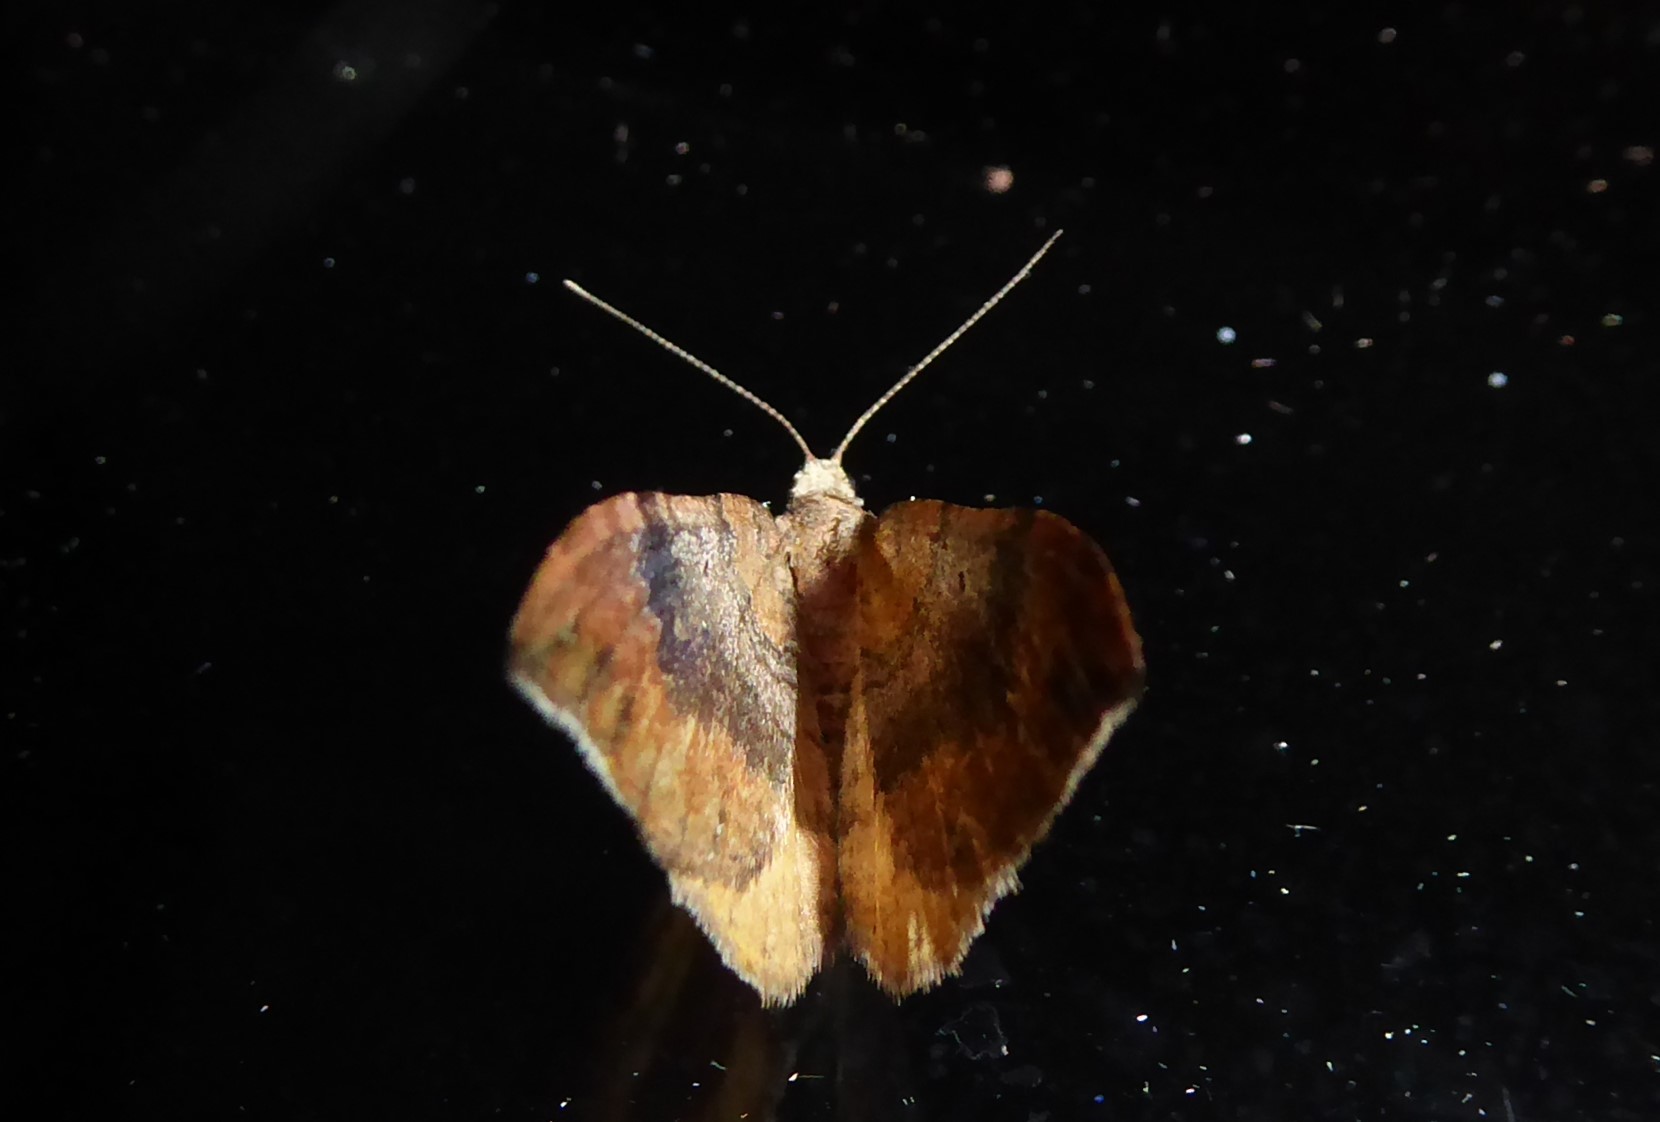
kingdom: Animalia
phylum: Arthropoda
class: Insecta
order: Lepidoptera
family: Geometridae
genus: Homodotis
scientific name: Homodotis megaspilata
